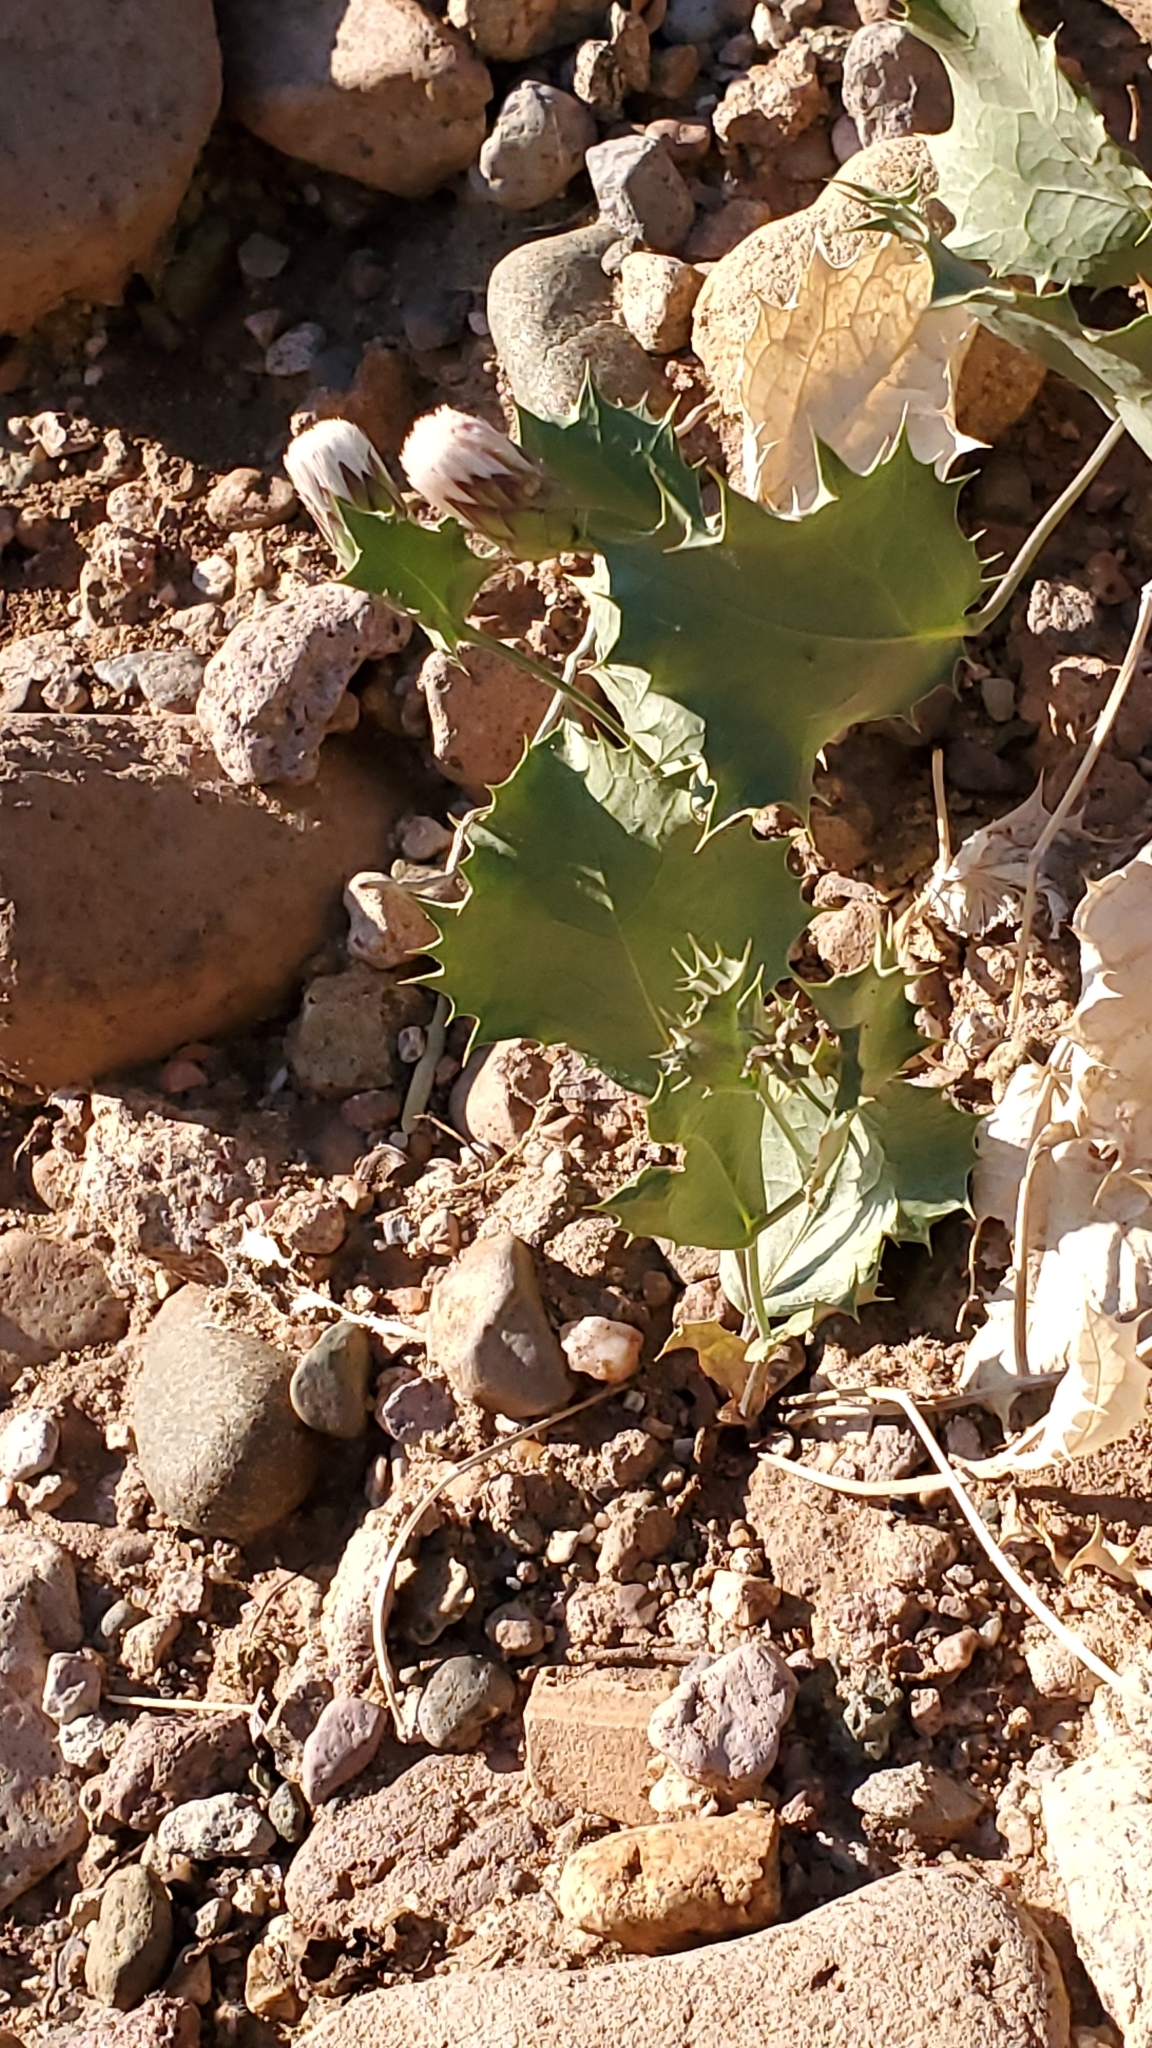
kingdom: Plantae
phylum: Tracheophyta
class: Magnoliopsida
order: Asterales
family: Asteraceae
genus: Acourtia
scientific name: Acourtia nana
